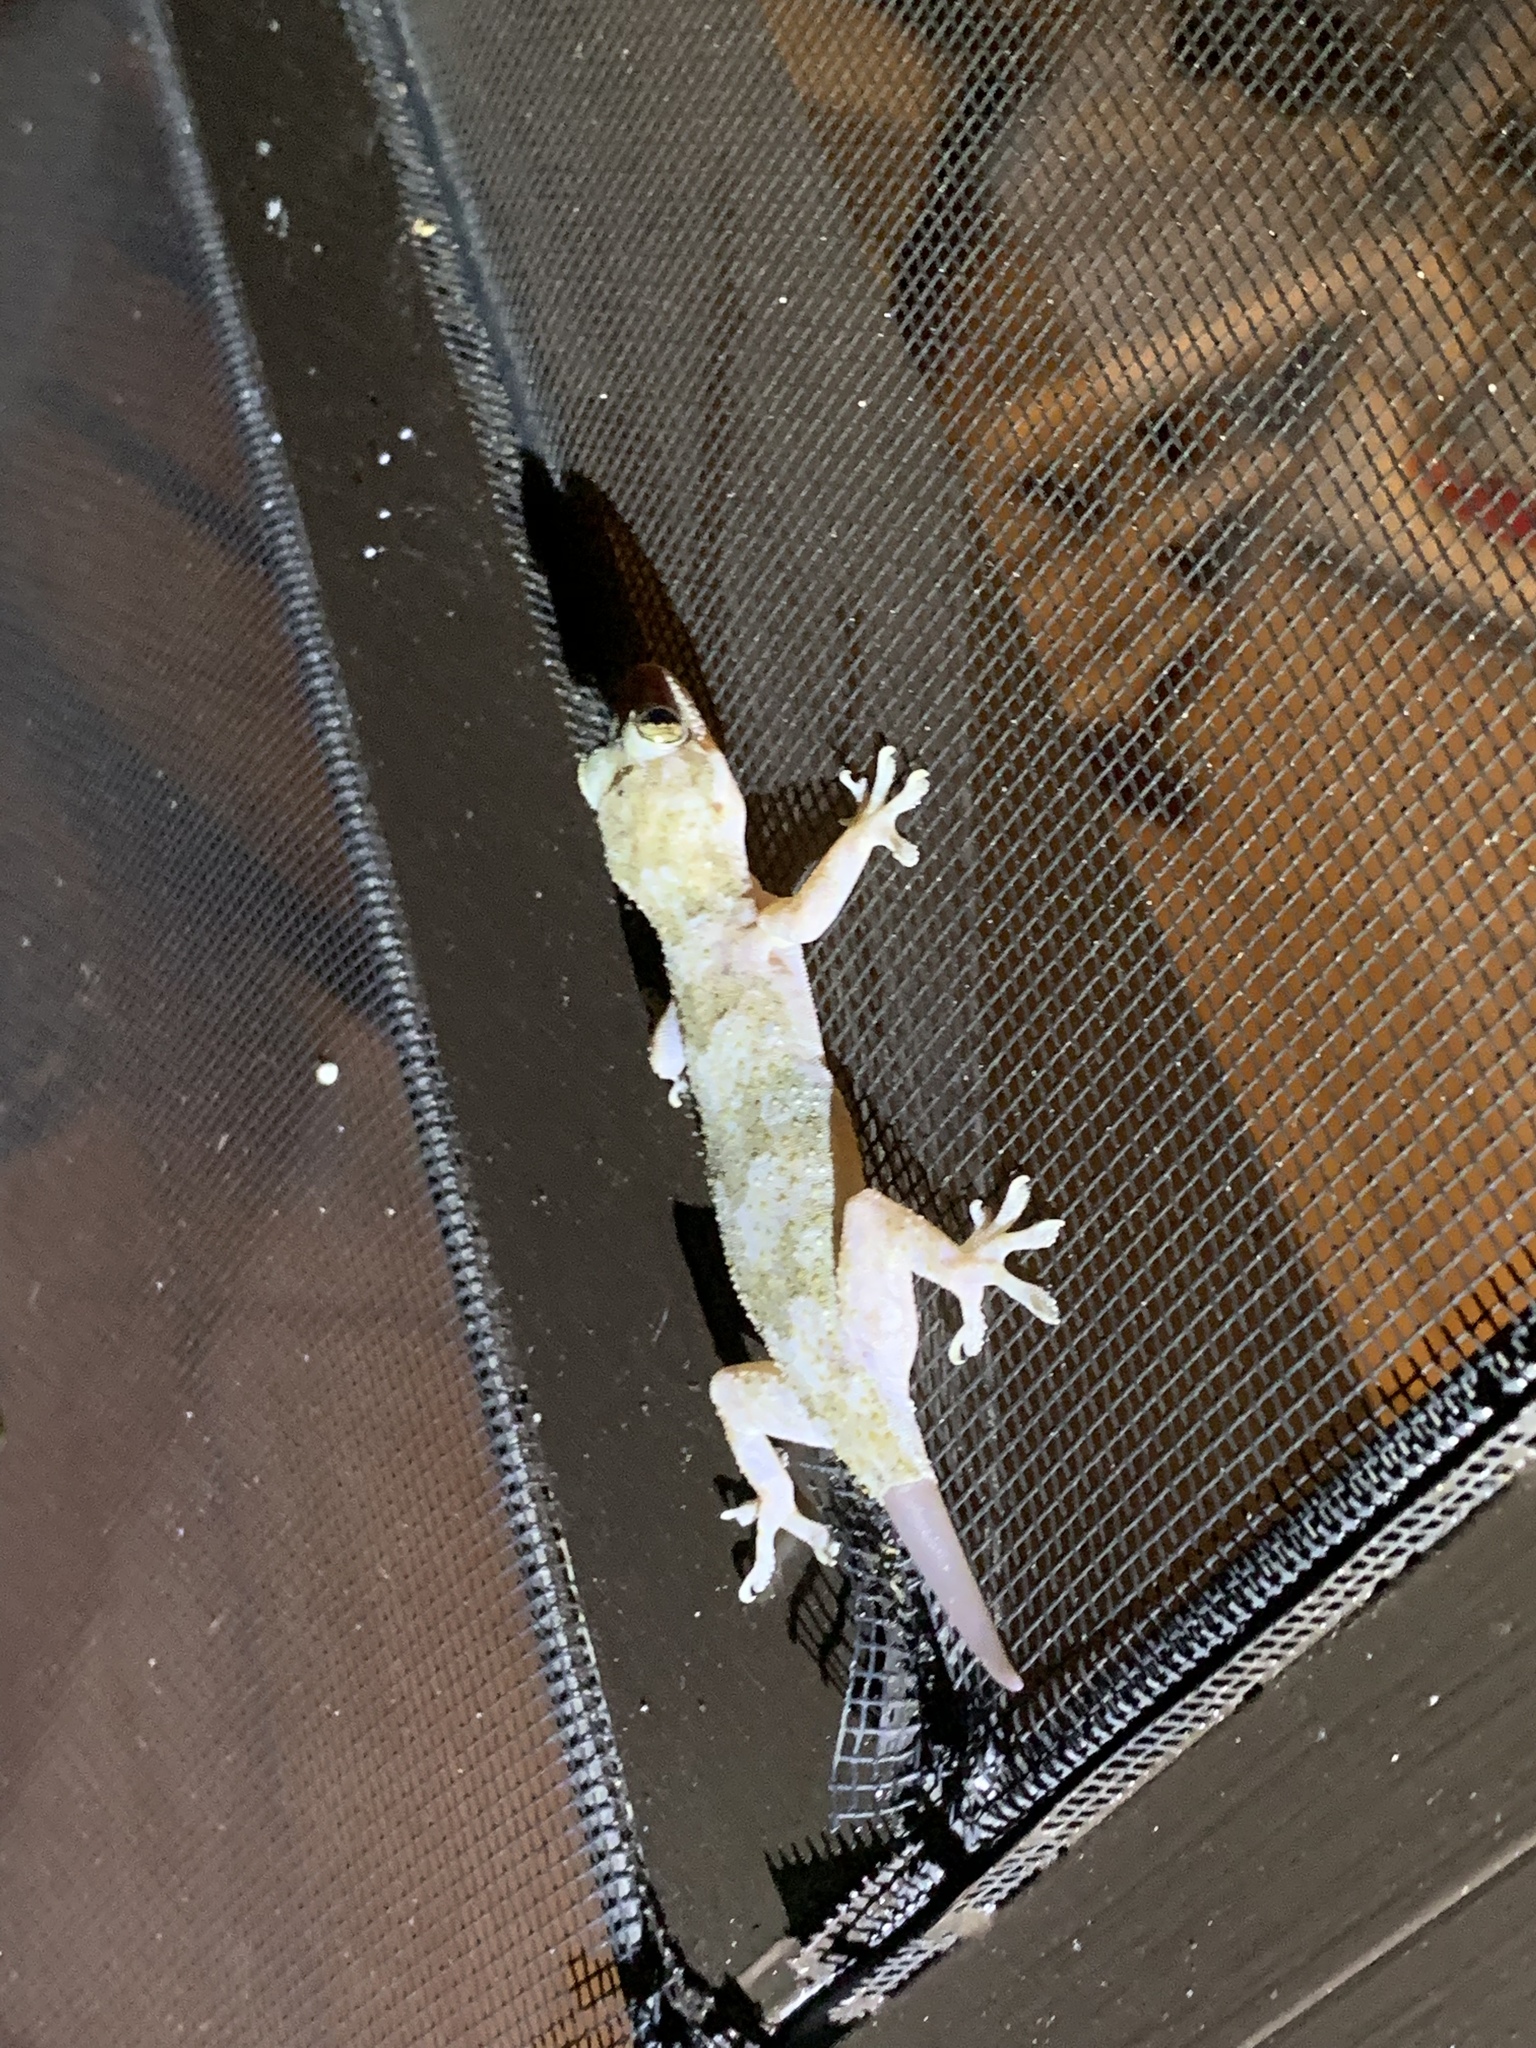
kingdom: Animalia
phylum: Chordata
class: Squamata
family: Gekkonidae
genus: Hemidactylus
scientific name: Hemidactylus mabouia
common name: House gecko
